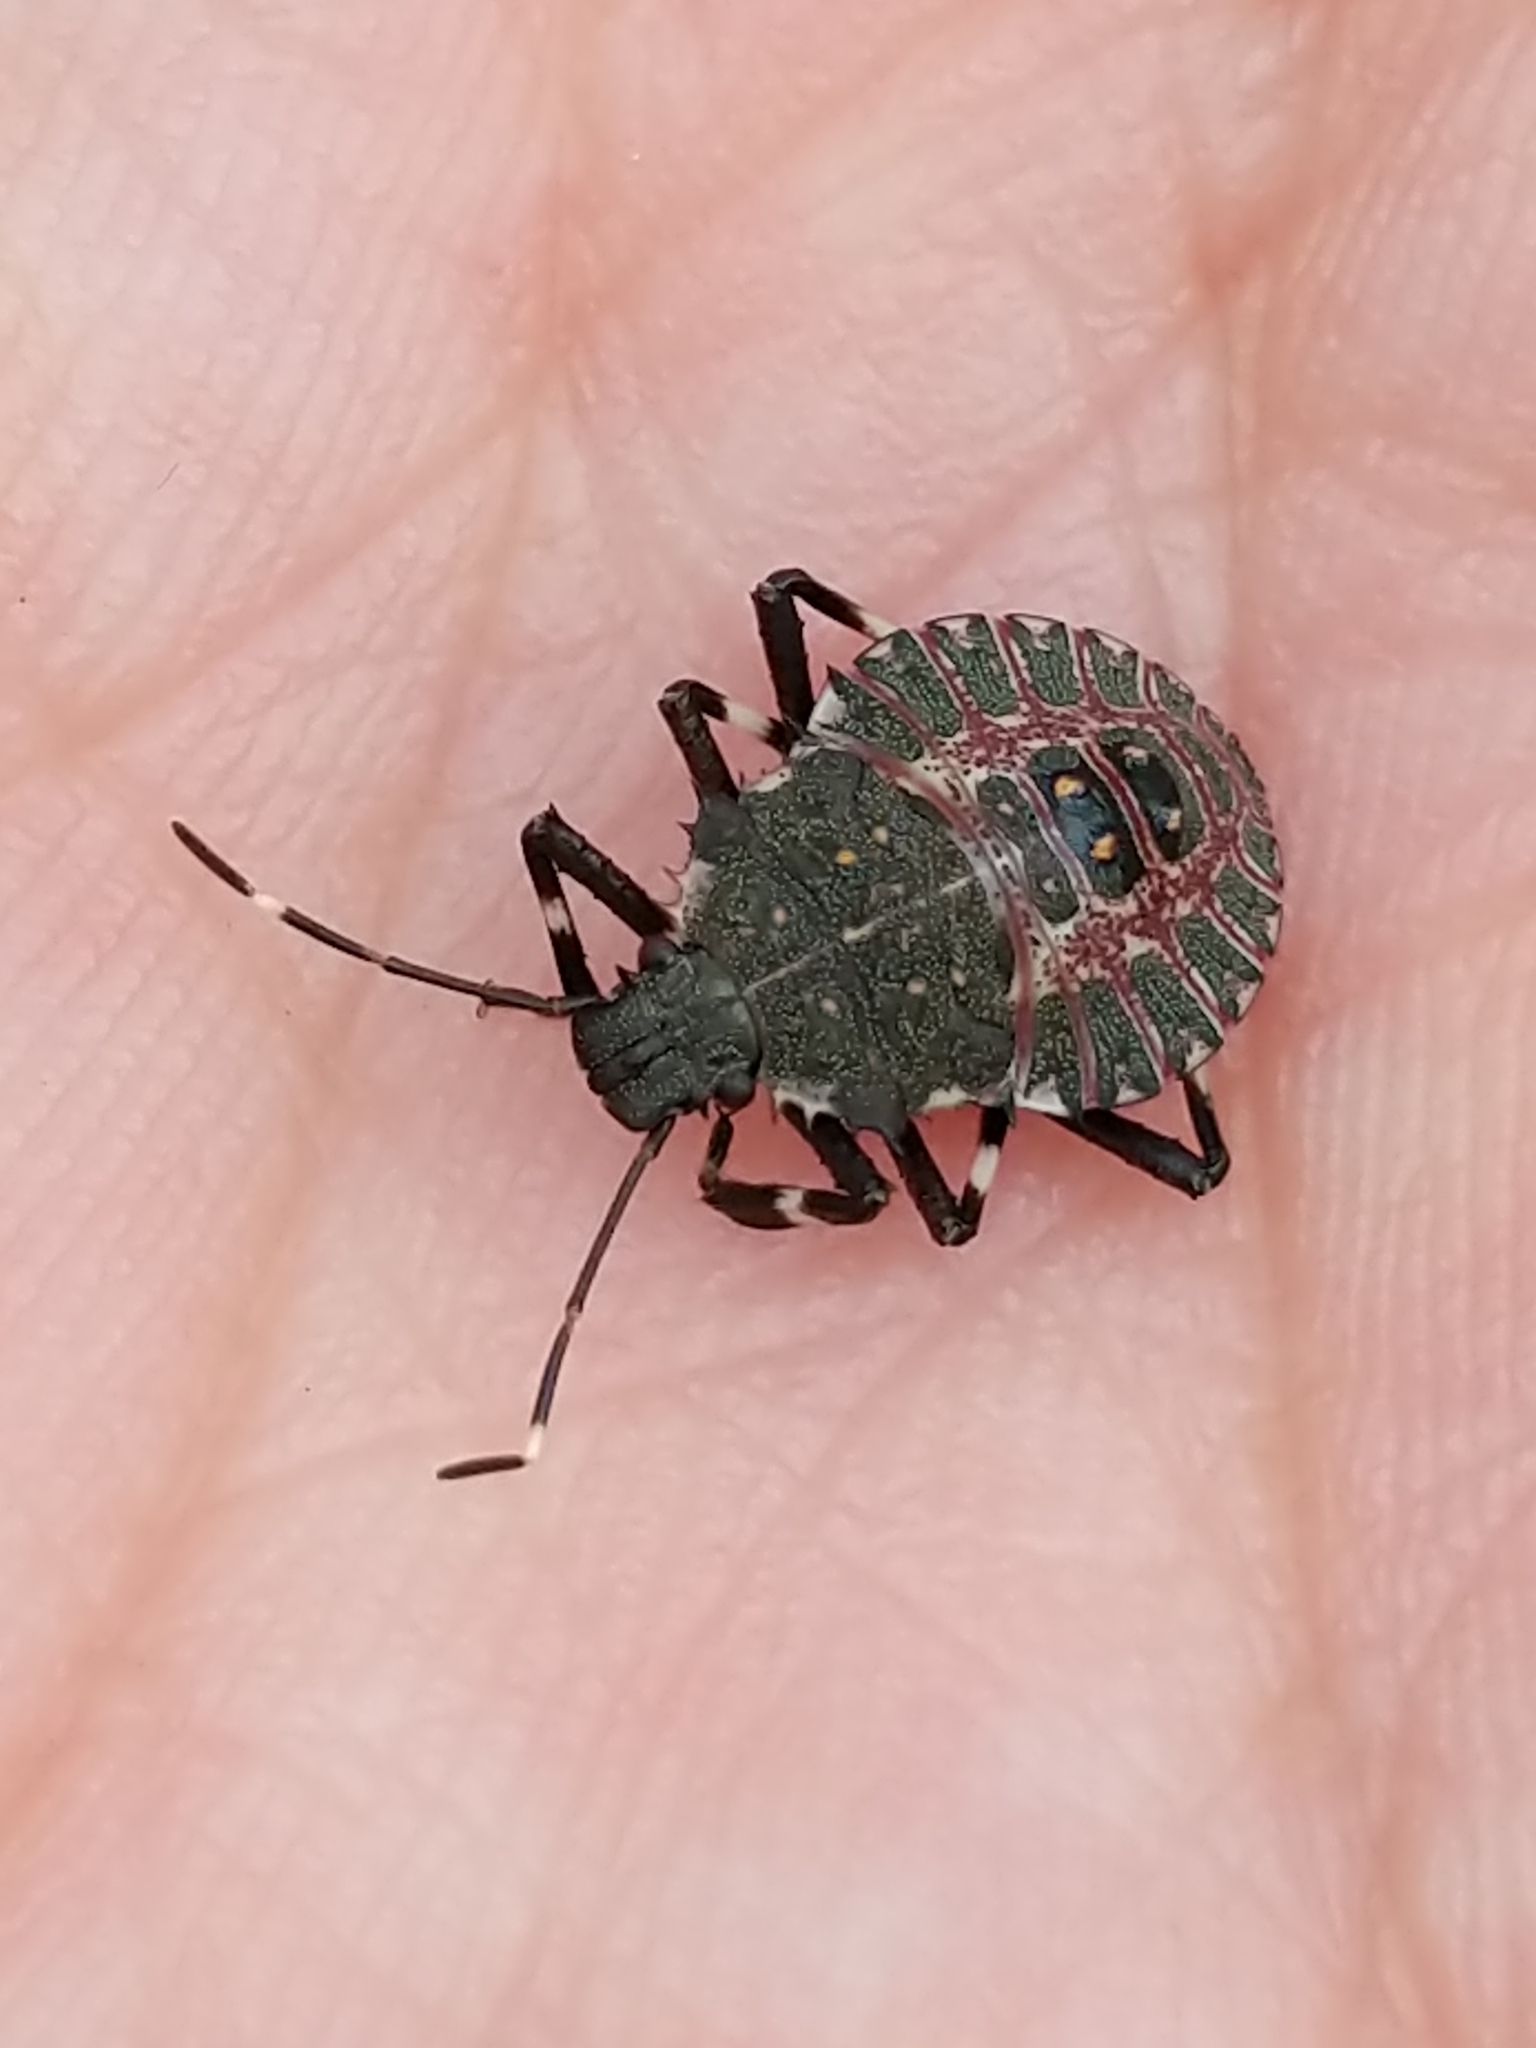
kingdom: Animalia
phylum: Arthropoda
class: Insecta
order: Hemiptera
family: Pentatomidae
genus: Halyomorpha
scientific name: Halyomorpha halys
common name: Brown marmorated stink bug
